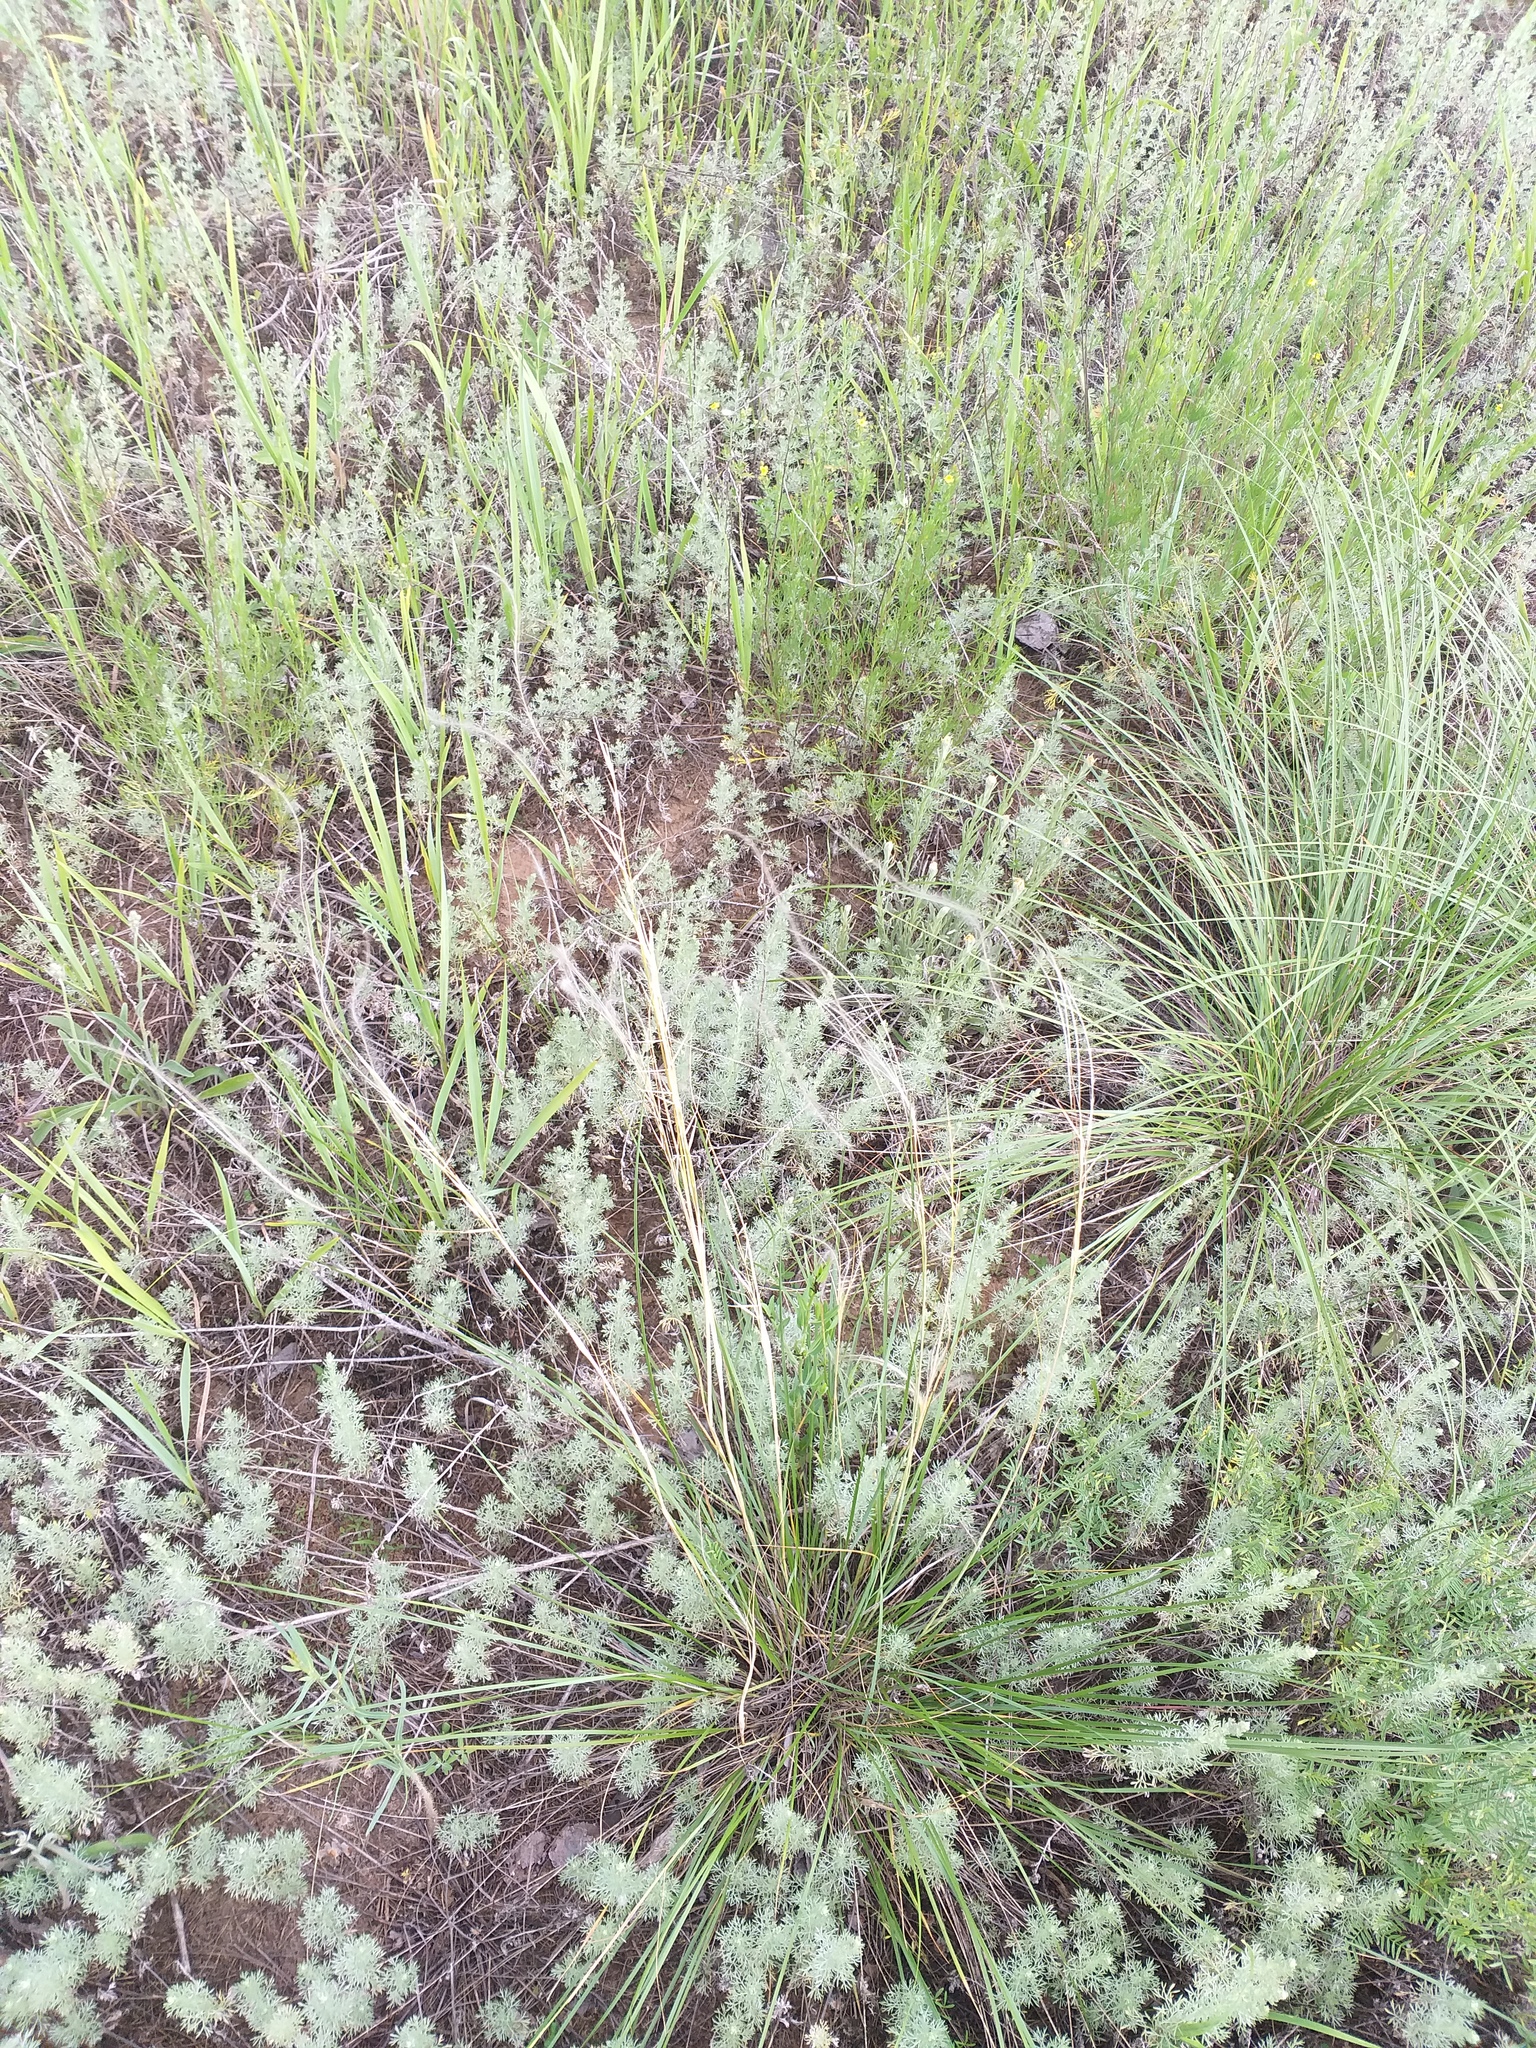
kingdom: Plantae
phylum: Tracheophyta
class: Magnoliopsida
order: Asterales
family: Asteraceae
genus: Artemisia
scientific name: Artemisia austriaca
